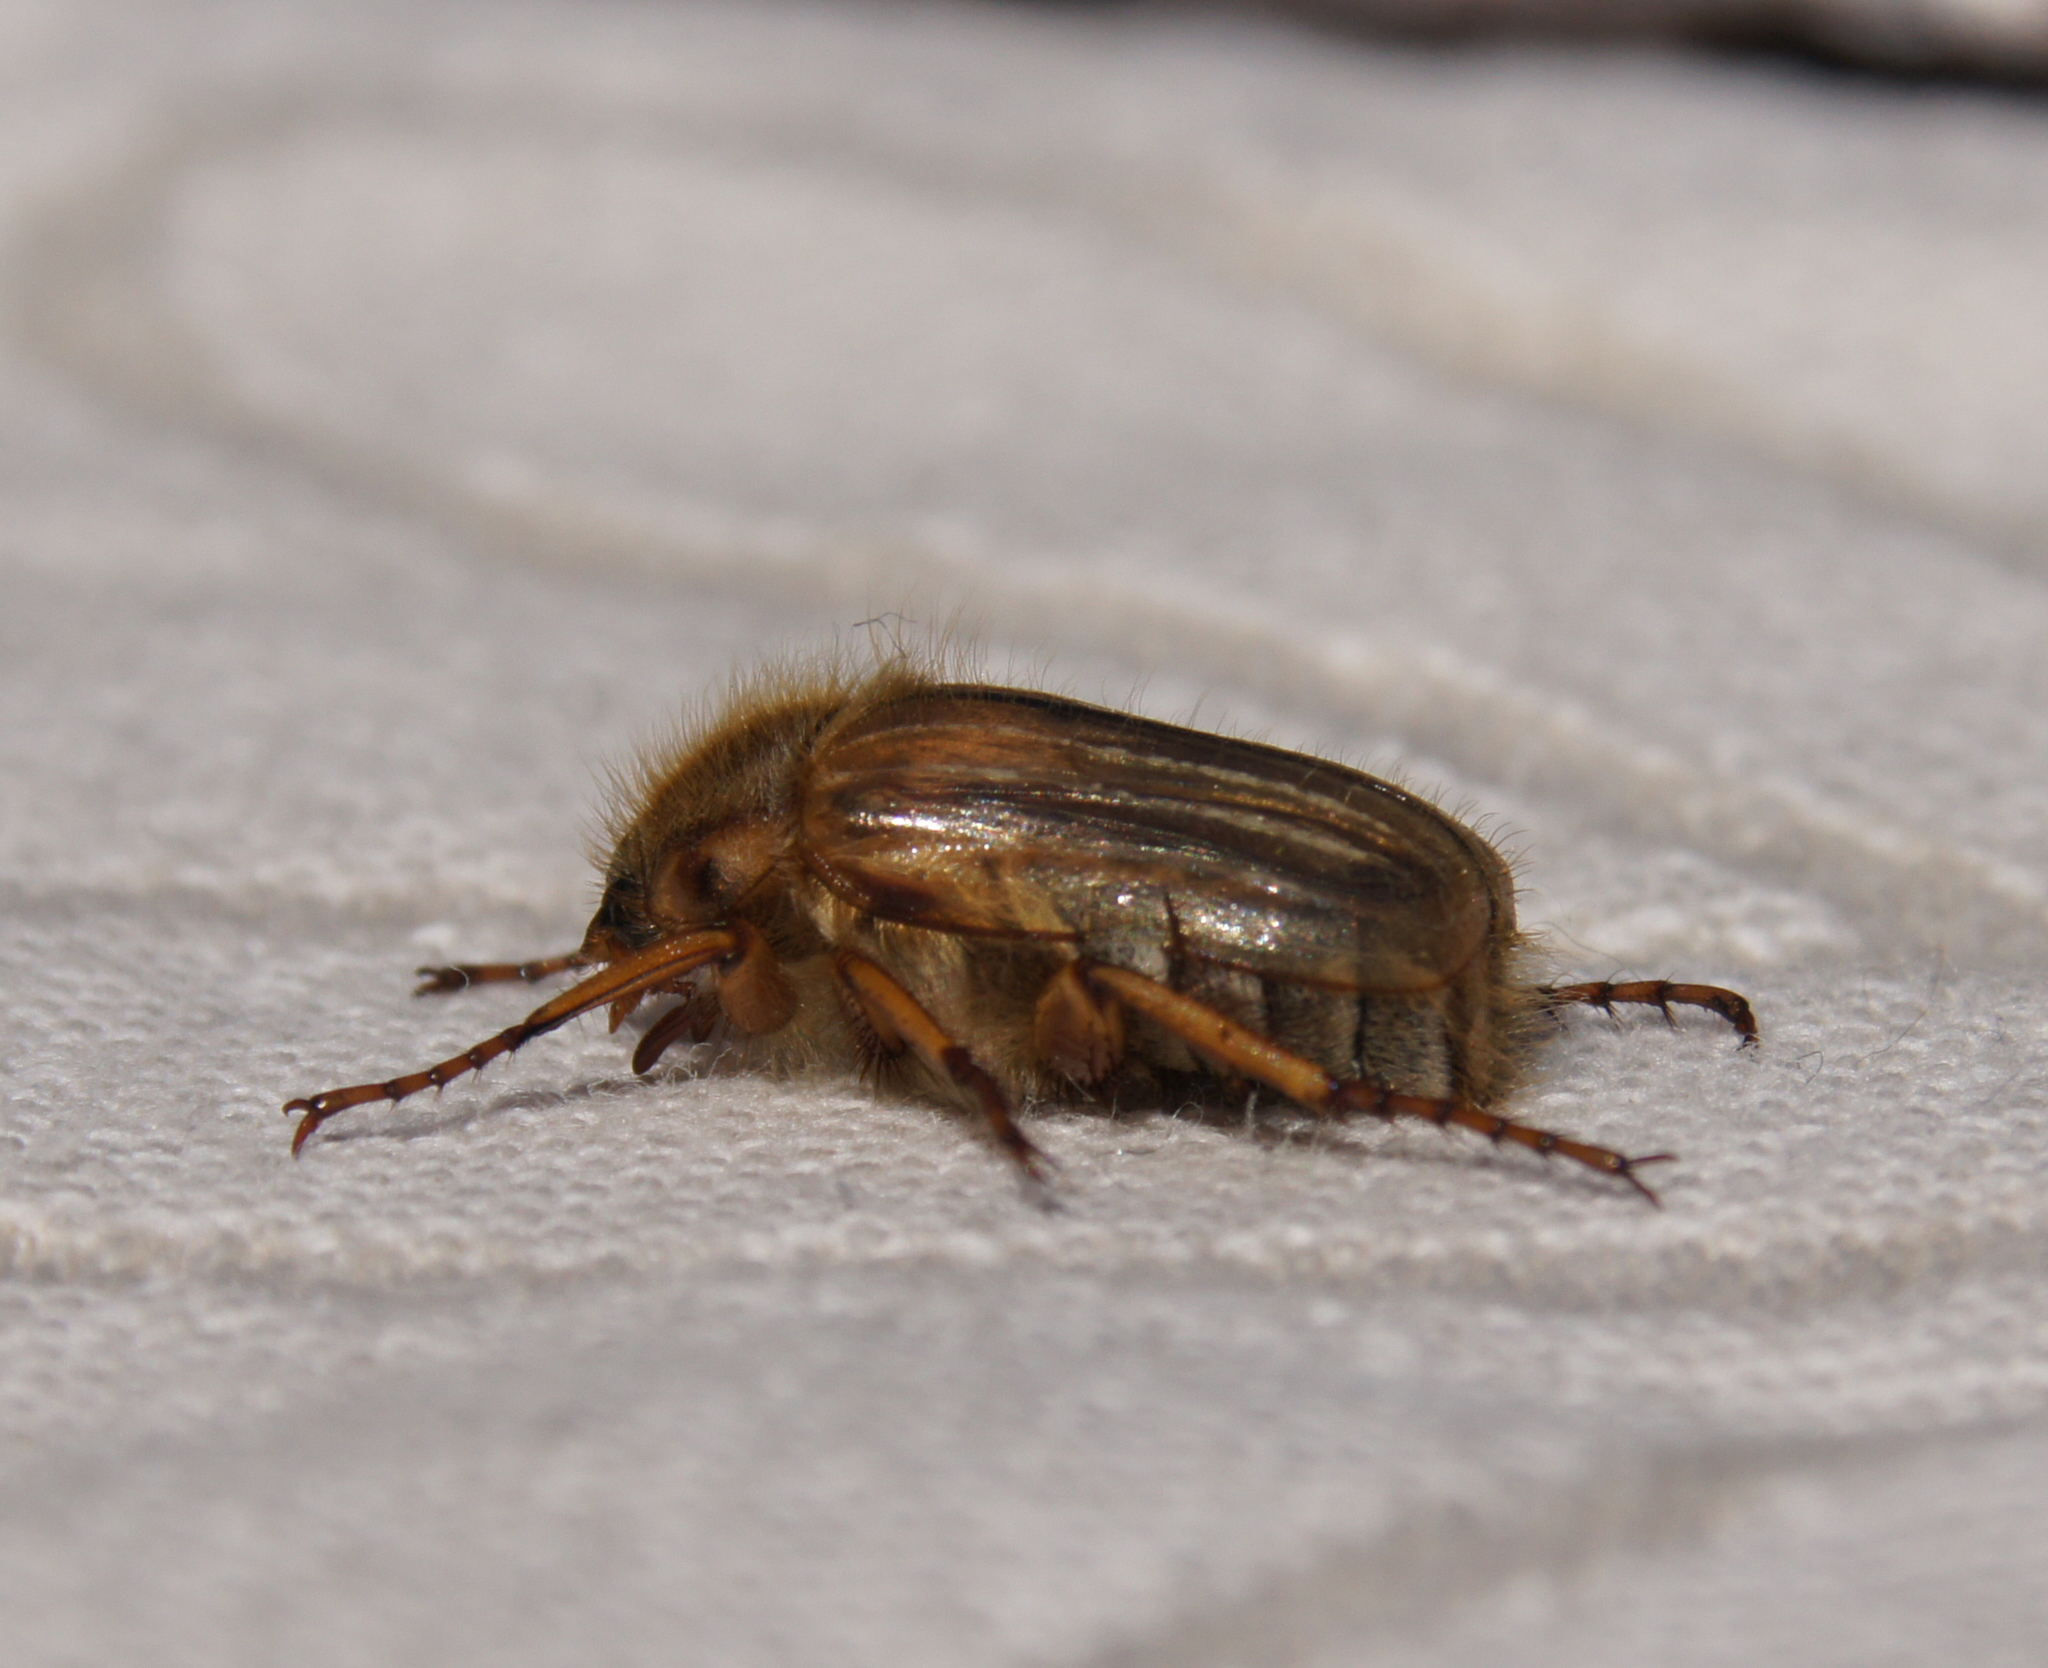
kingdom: Animalia
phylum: Arthropoda
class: Insecta
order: Coleoptera
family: Scarabaeidae
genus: Amphimallon
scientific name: Amphimallon solstitiale
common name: Summer chafer
